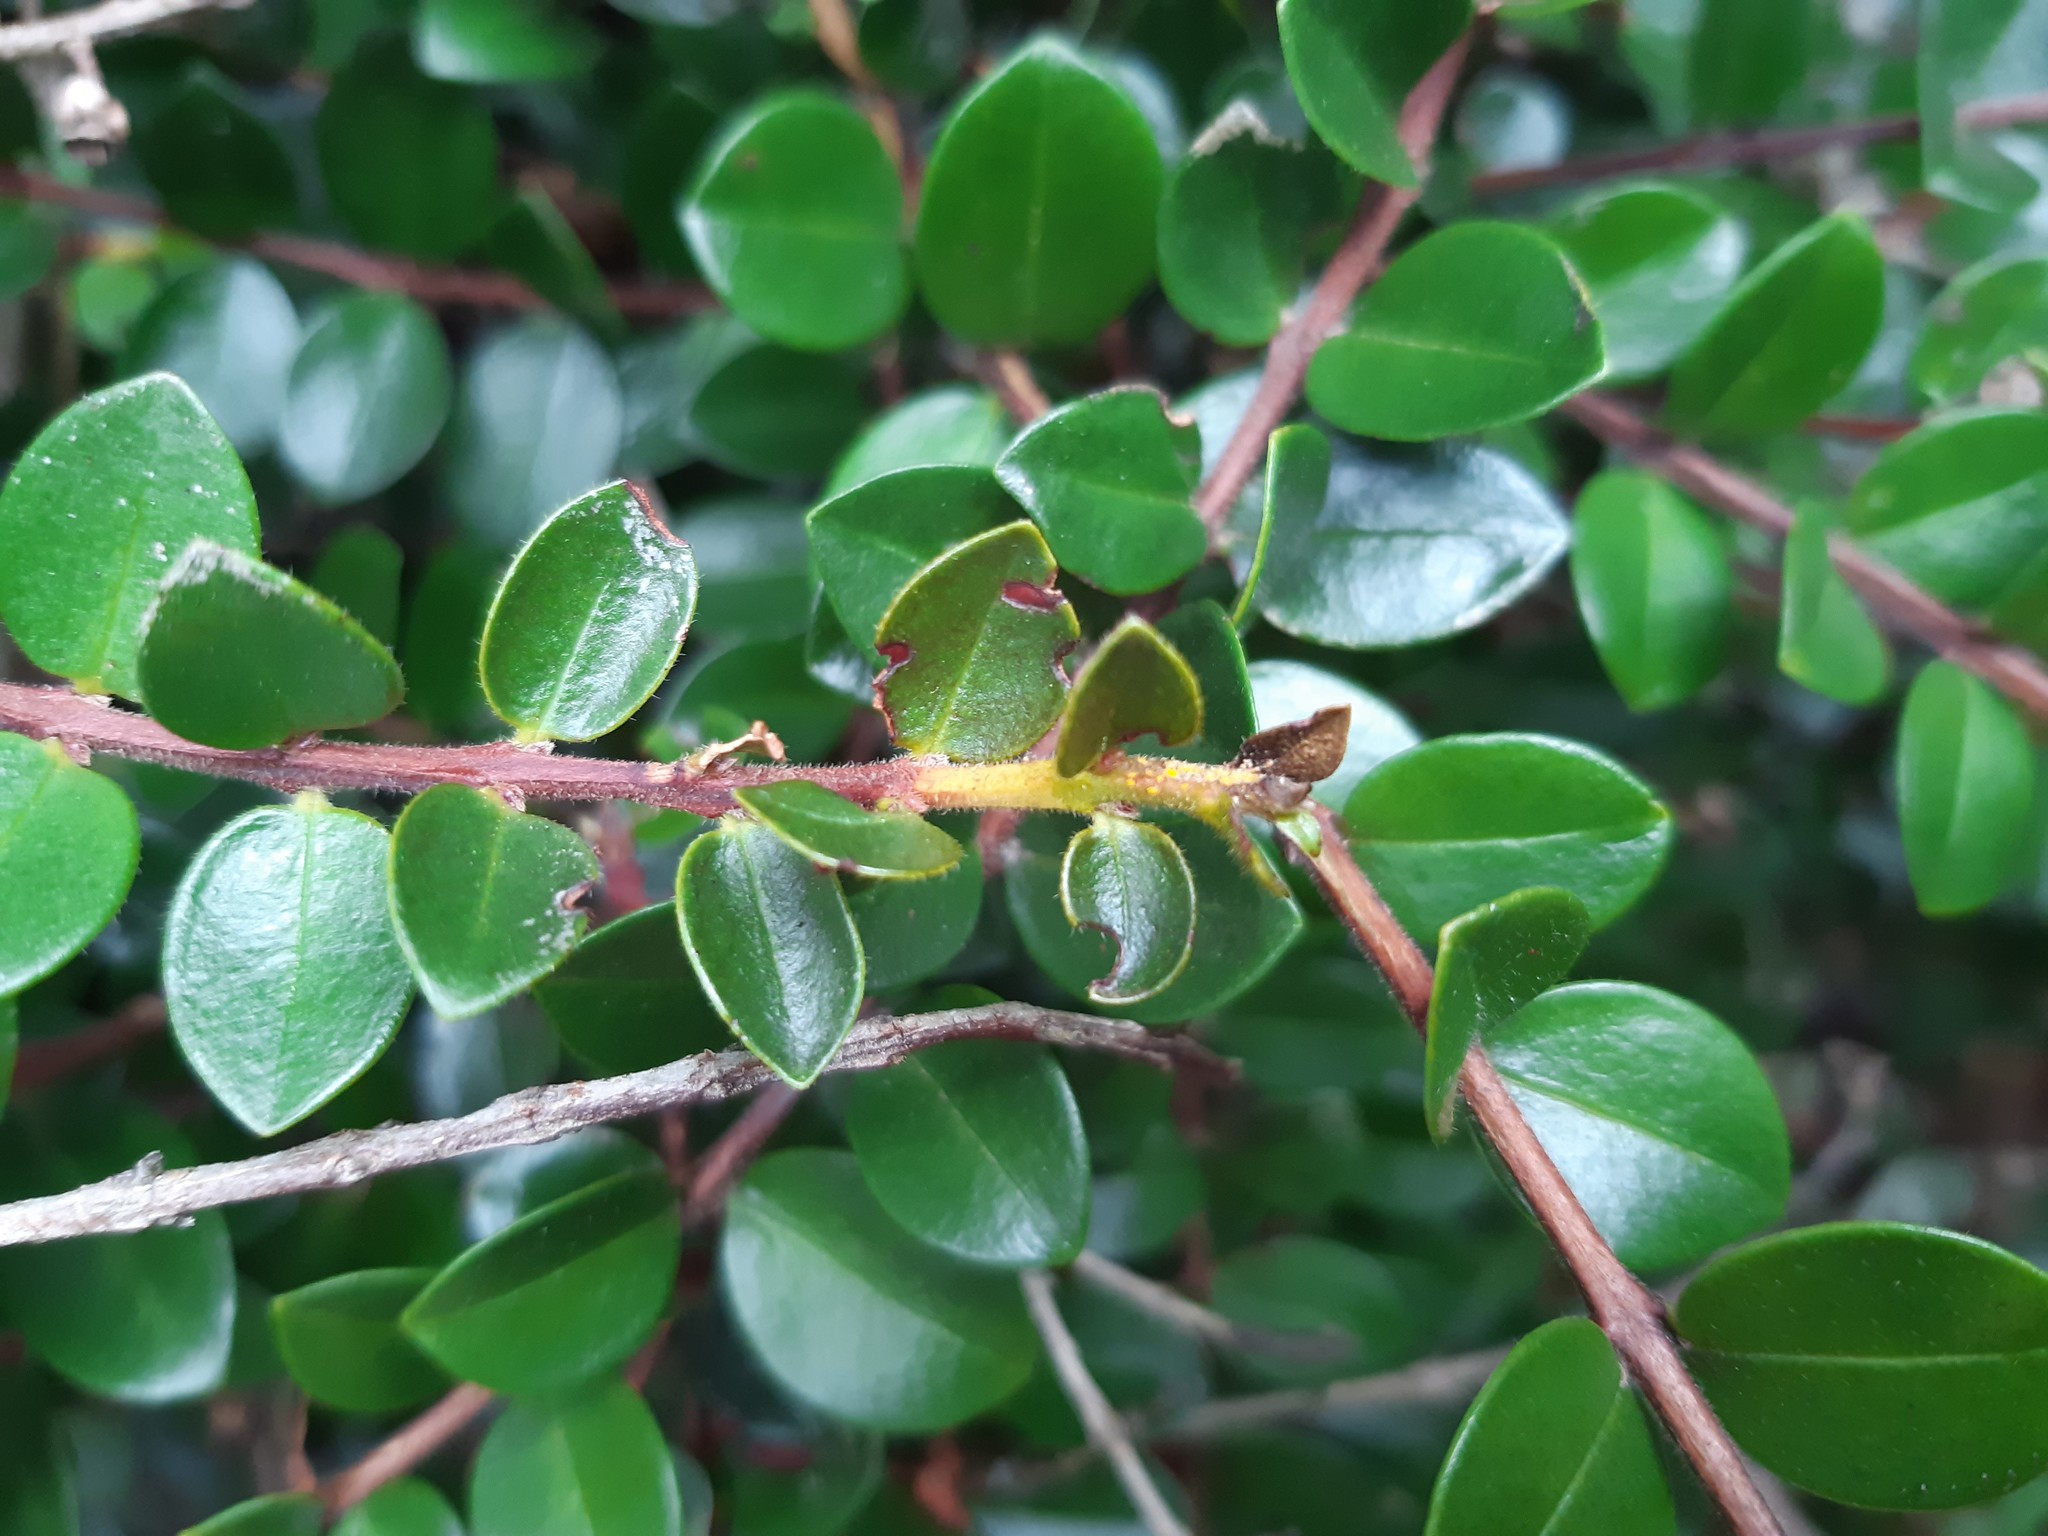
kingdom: Fungi
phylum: Basidiomycota
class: Pucciniomycetes
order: Pucciniales
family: Sphaerophragmiaceae
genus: Austropuccinia
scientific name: Austropuccinia psidii
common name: Myrtle rust
